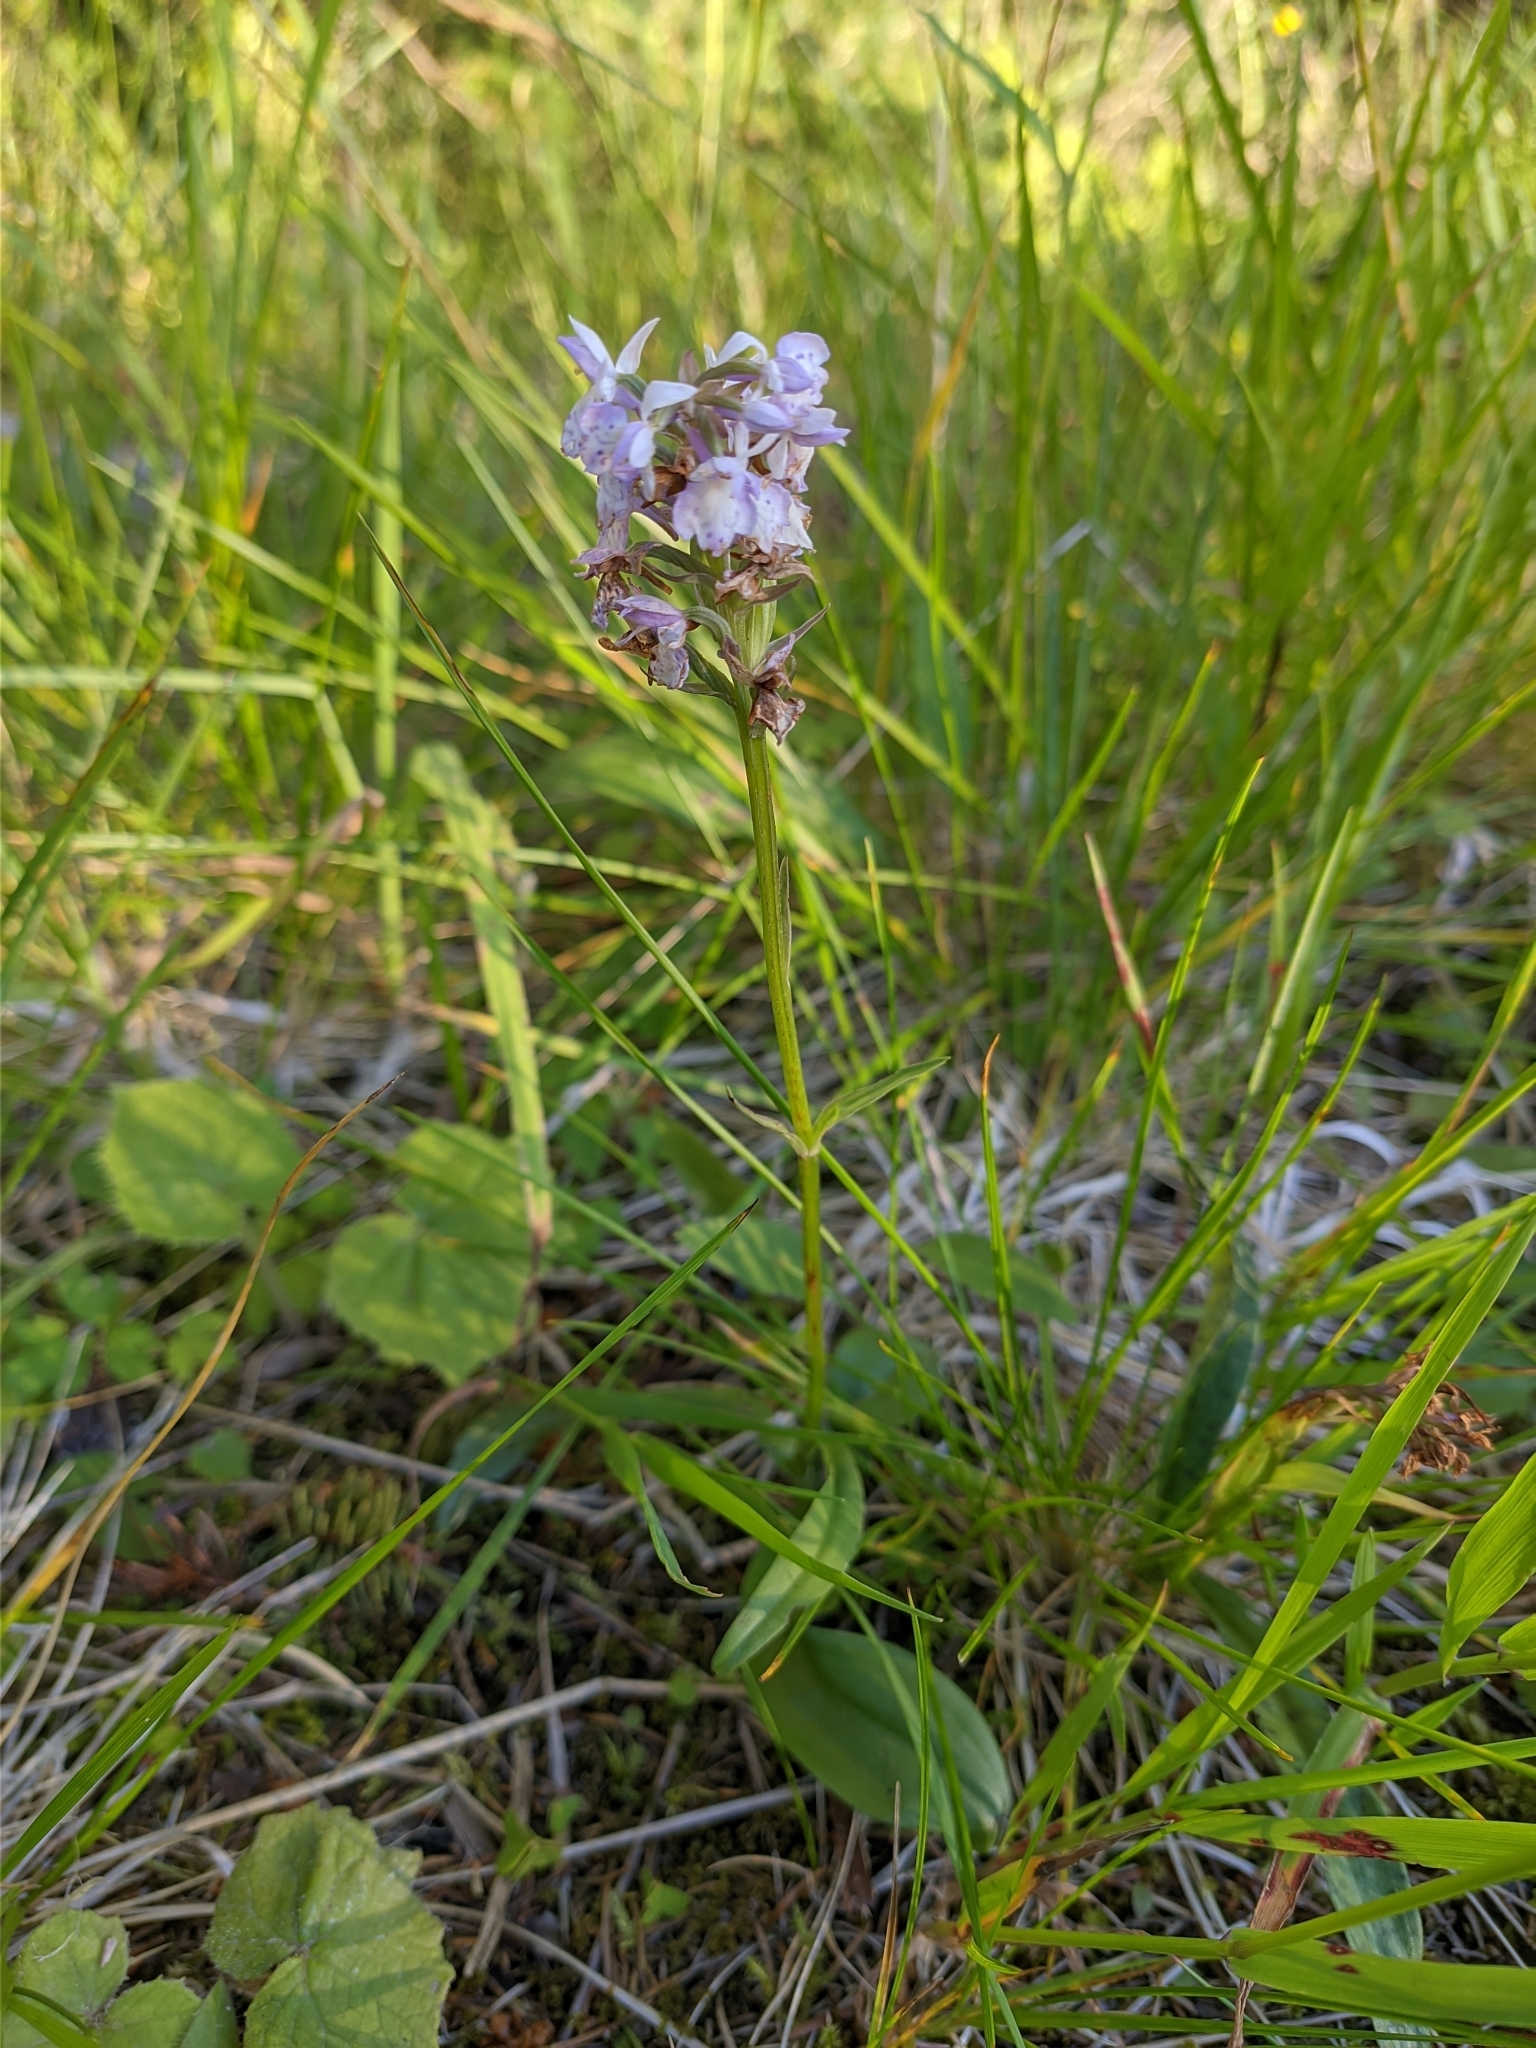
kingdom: Plantae
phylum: Tracheophyta
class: Liliopsida
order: Asparagales
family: Orchidaceae
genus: Dactylorhiza
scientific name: Dactylorhiza maculata
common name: Heath spotted-orchid
